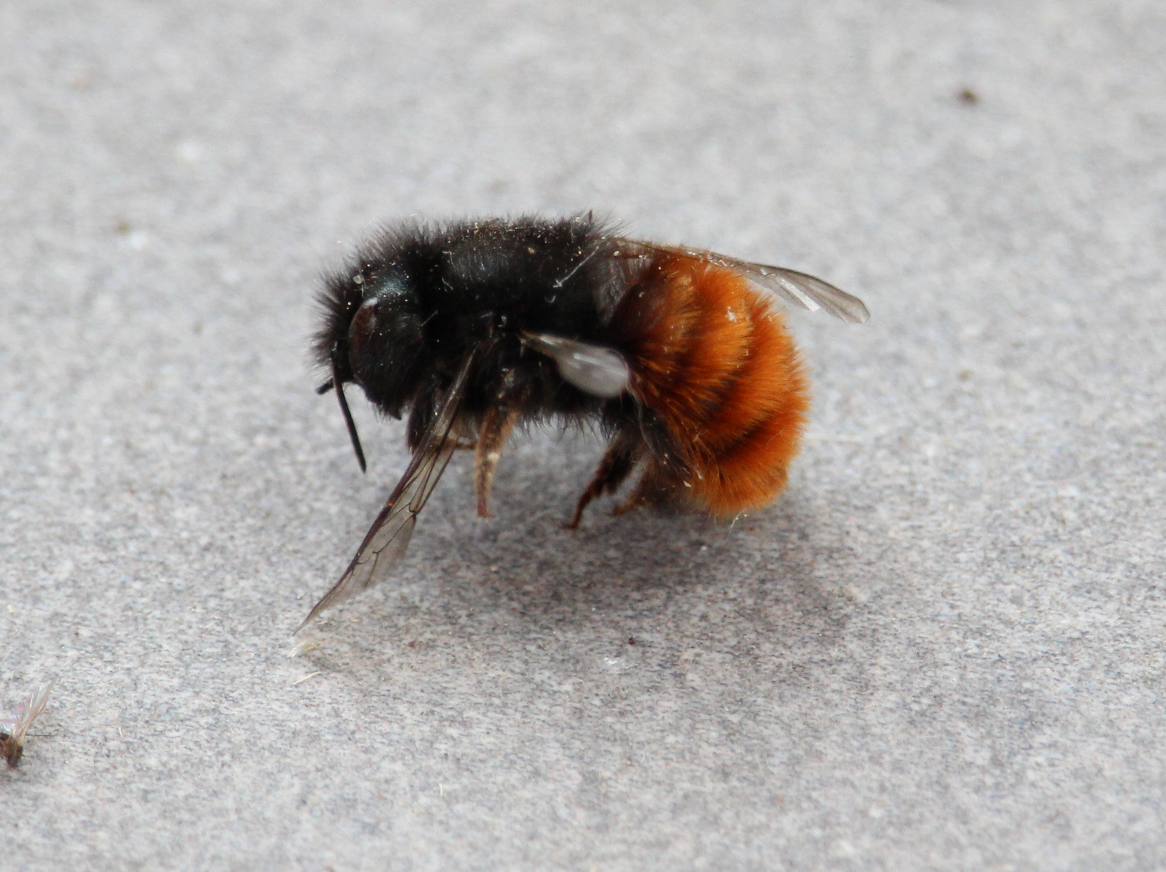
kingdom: Animalia
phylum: Arthropoda
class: Insecta
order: Hymenoptera
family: Megachilidae
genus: Osmia
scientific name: Osmia cornuta
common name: Mason bee
